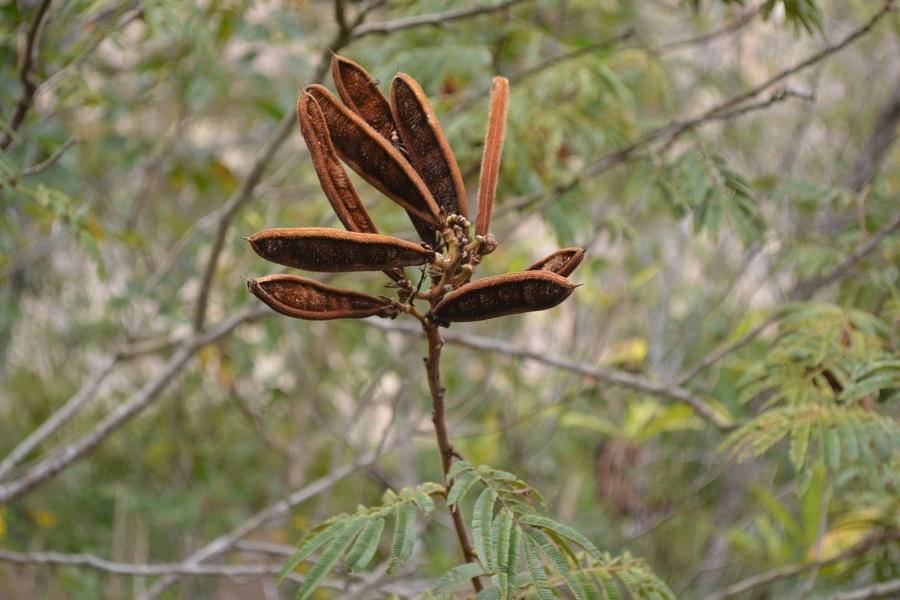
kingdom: Plantae
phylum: Tracheophyta
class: Magnoliopsida
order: Fabales
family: Fabaceae
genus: Calliandra
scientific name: Calliandra houstoniana
